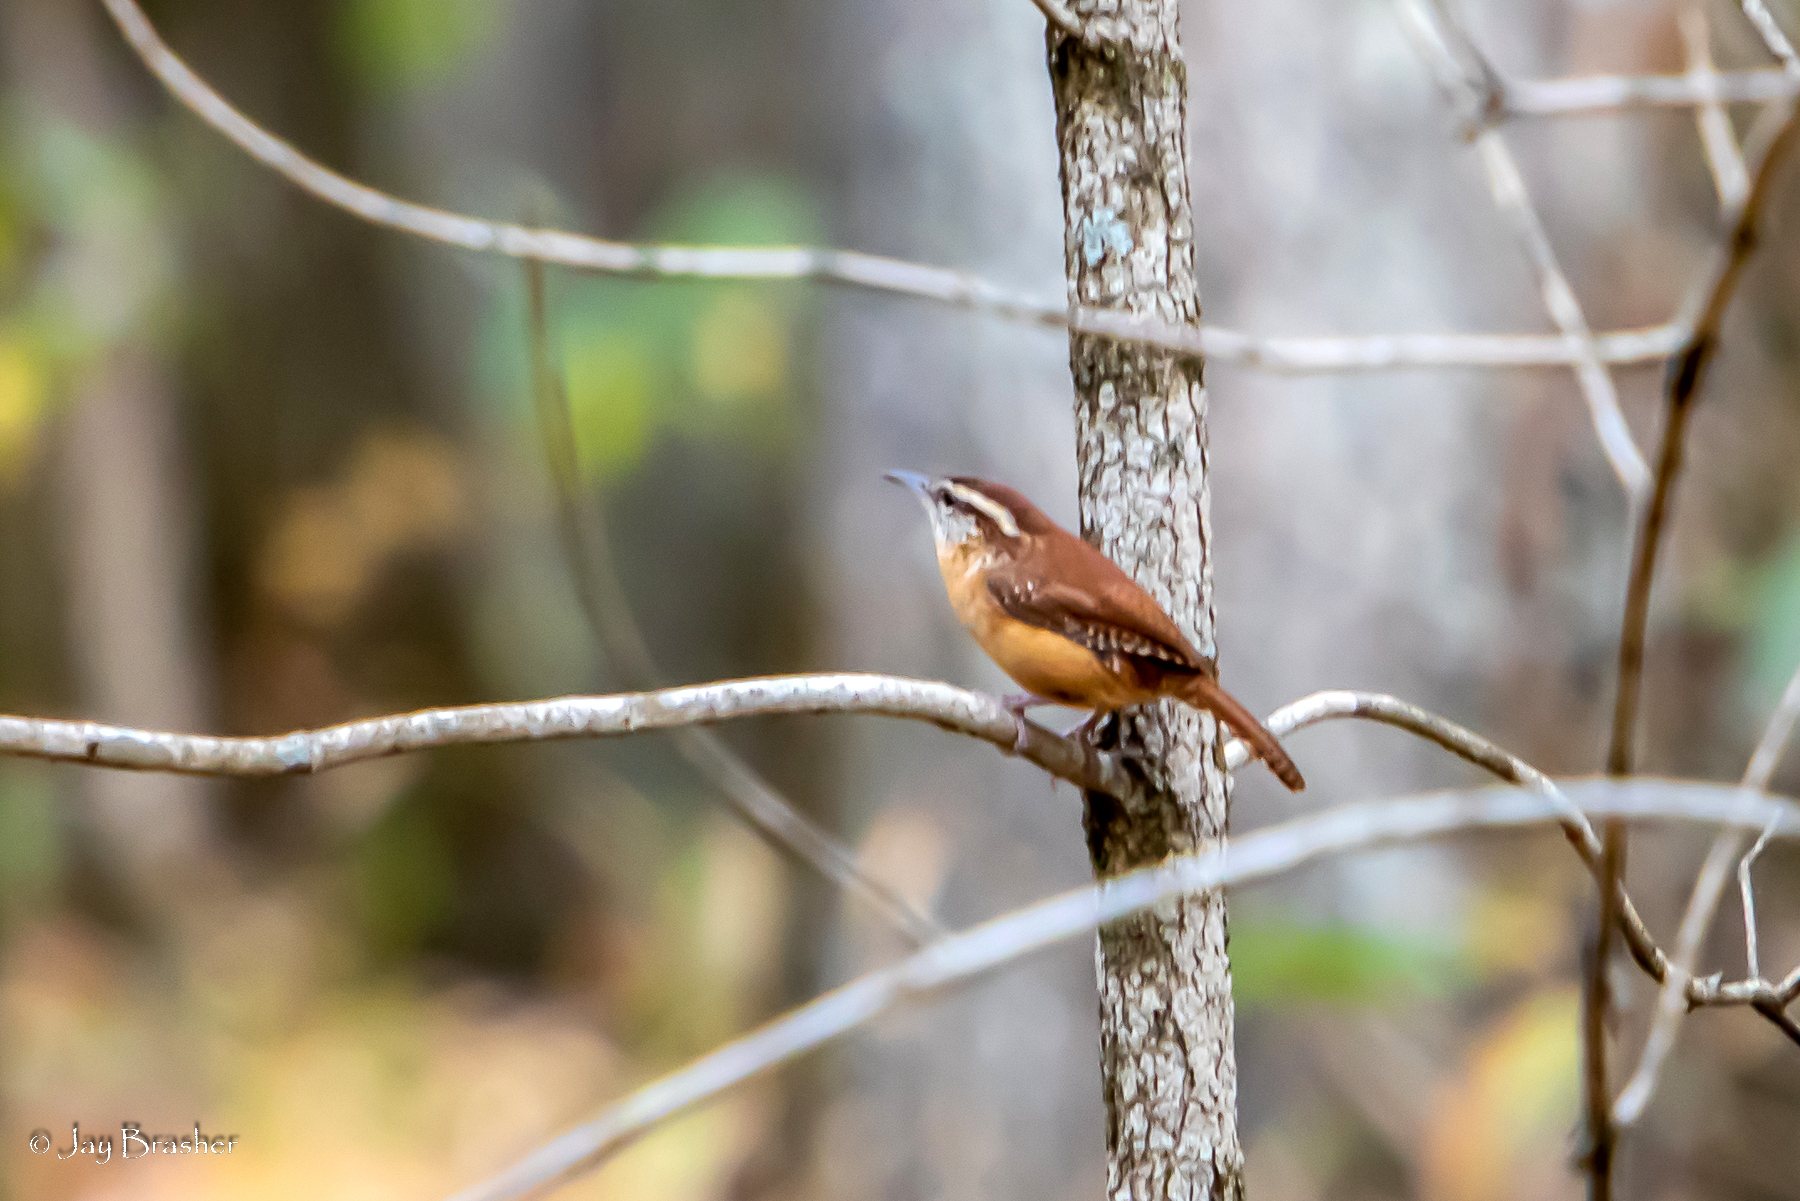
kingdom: Animalia
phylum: Chordata
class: Aves
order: Passeriformes
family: Troglodytidae
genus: Thryothorus
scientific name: Thryothorus ludovicianus
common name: Carolina wren
